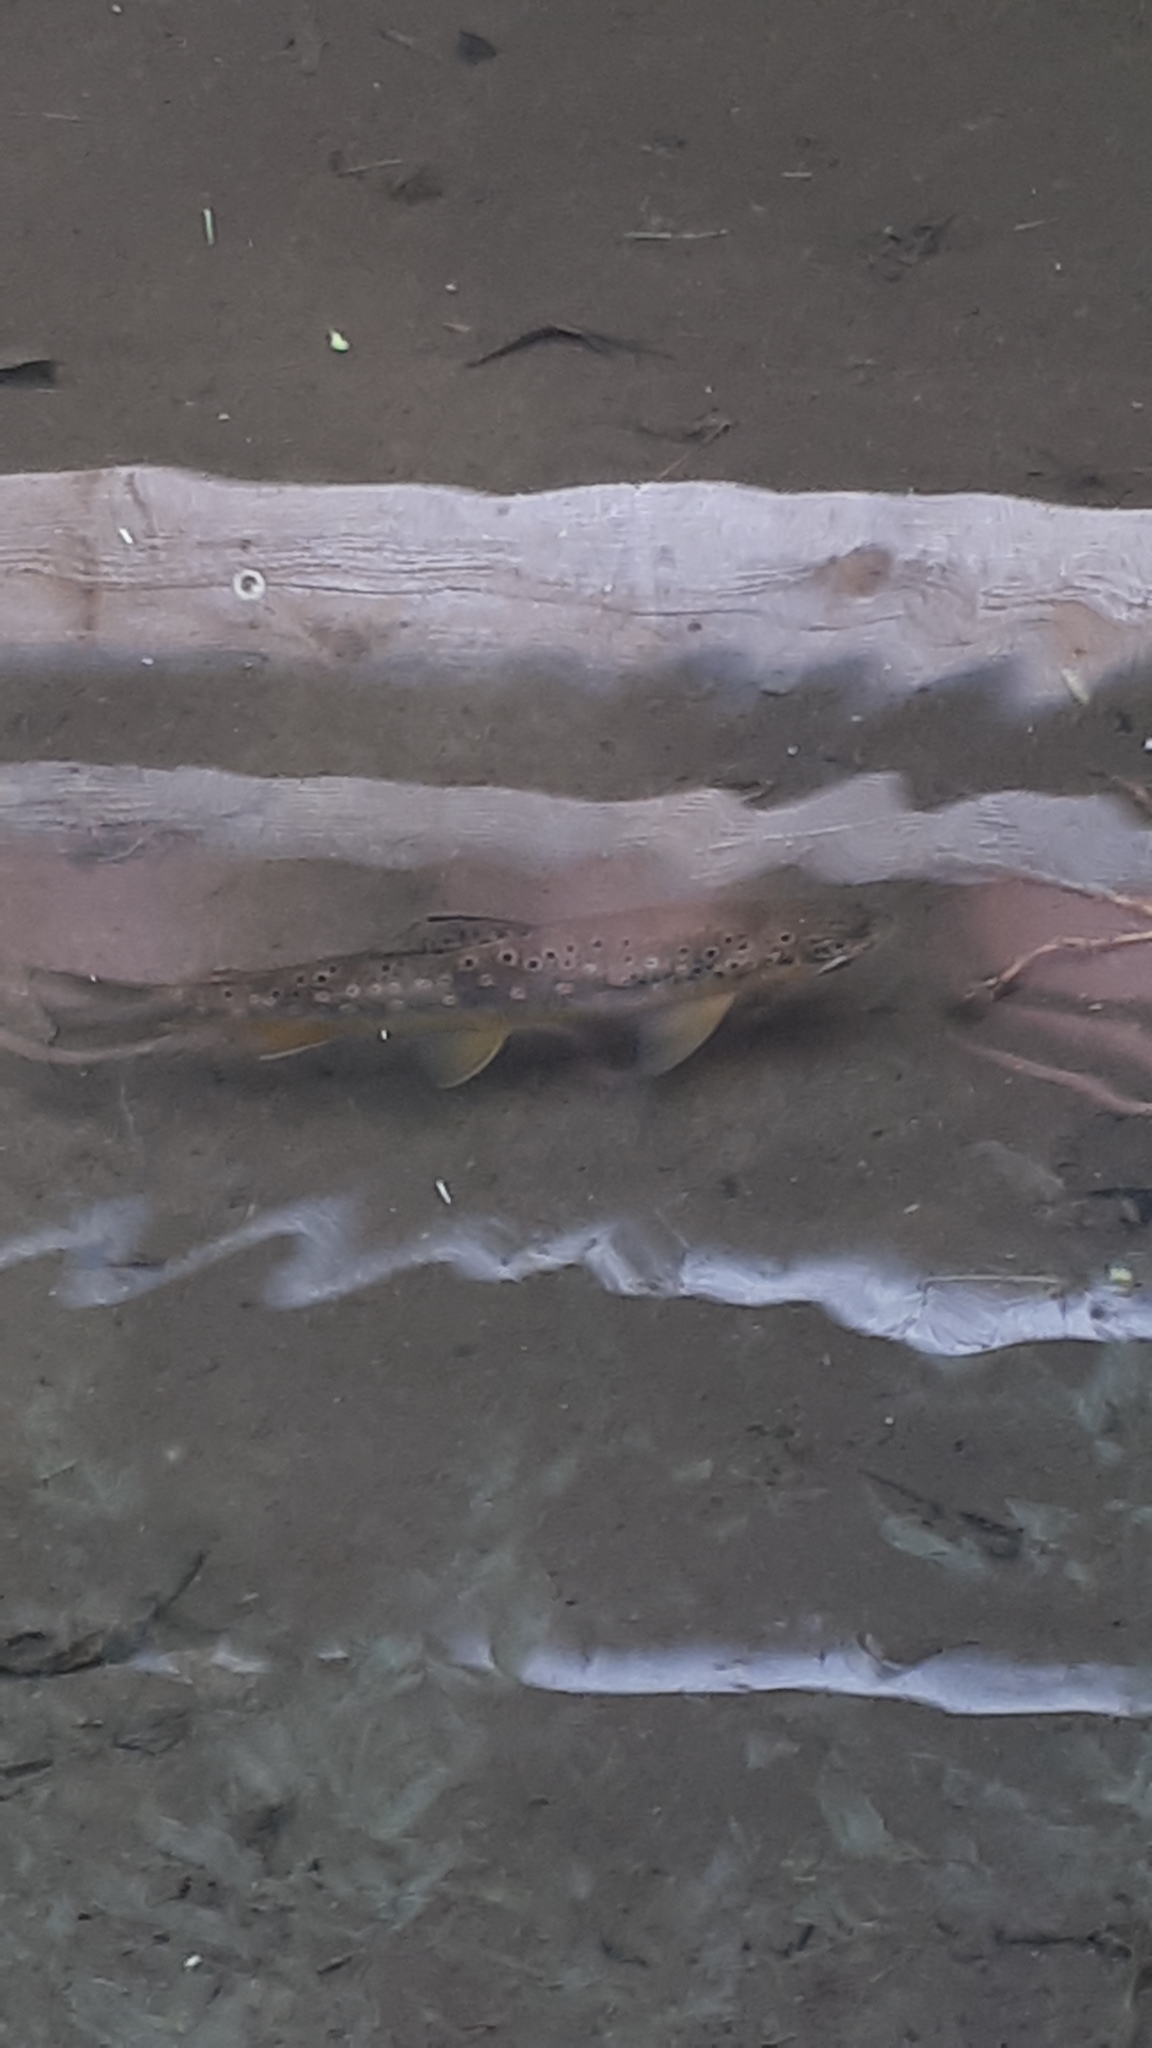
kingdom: Animalia
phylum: Chordata
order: Salmoniformes
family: Salmonidae
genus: Salmo
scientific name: Salmo labrax
